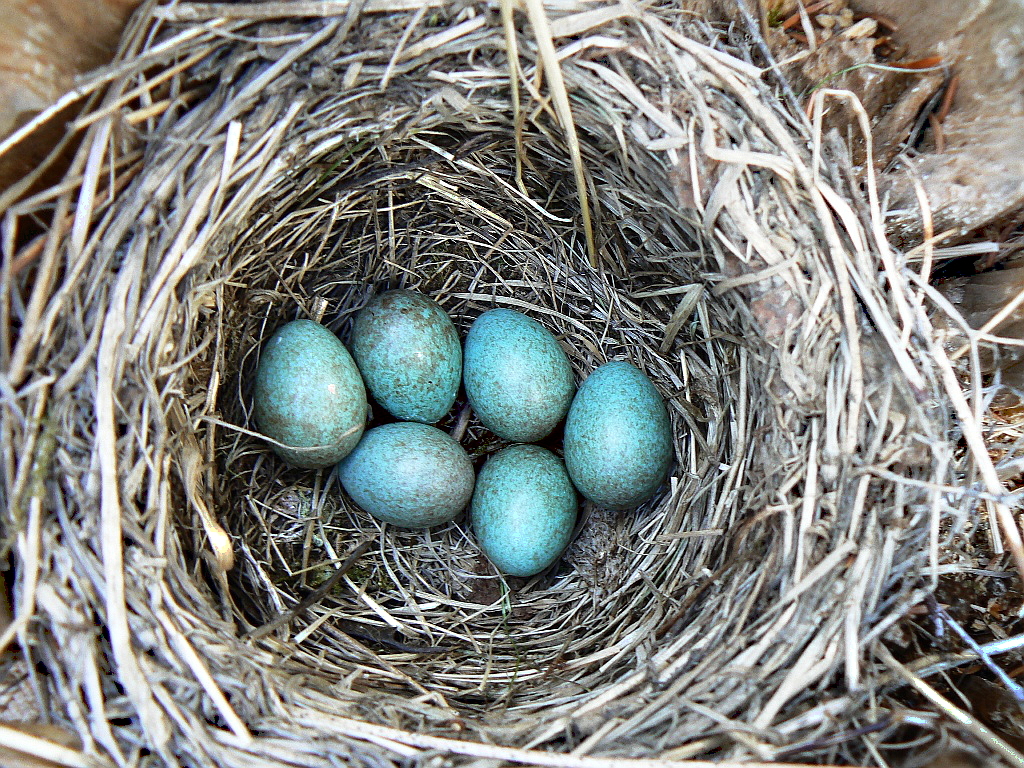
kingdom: Animalia
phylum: Chordata
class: Aves
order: Passeriformes
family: Turdidae
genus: Turdus
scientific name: Turdus iliacus
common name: Redwing
